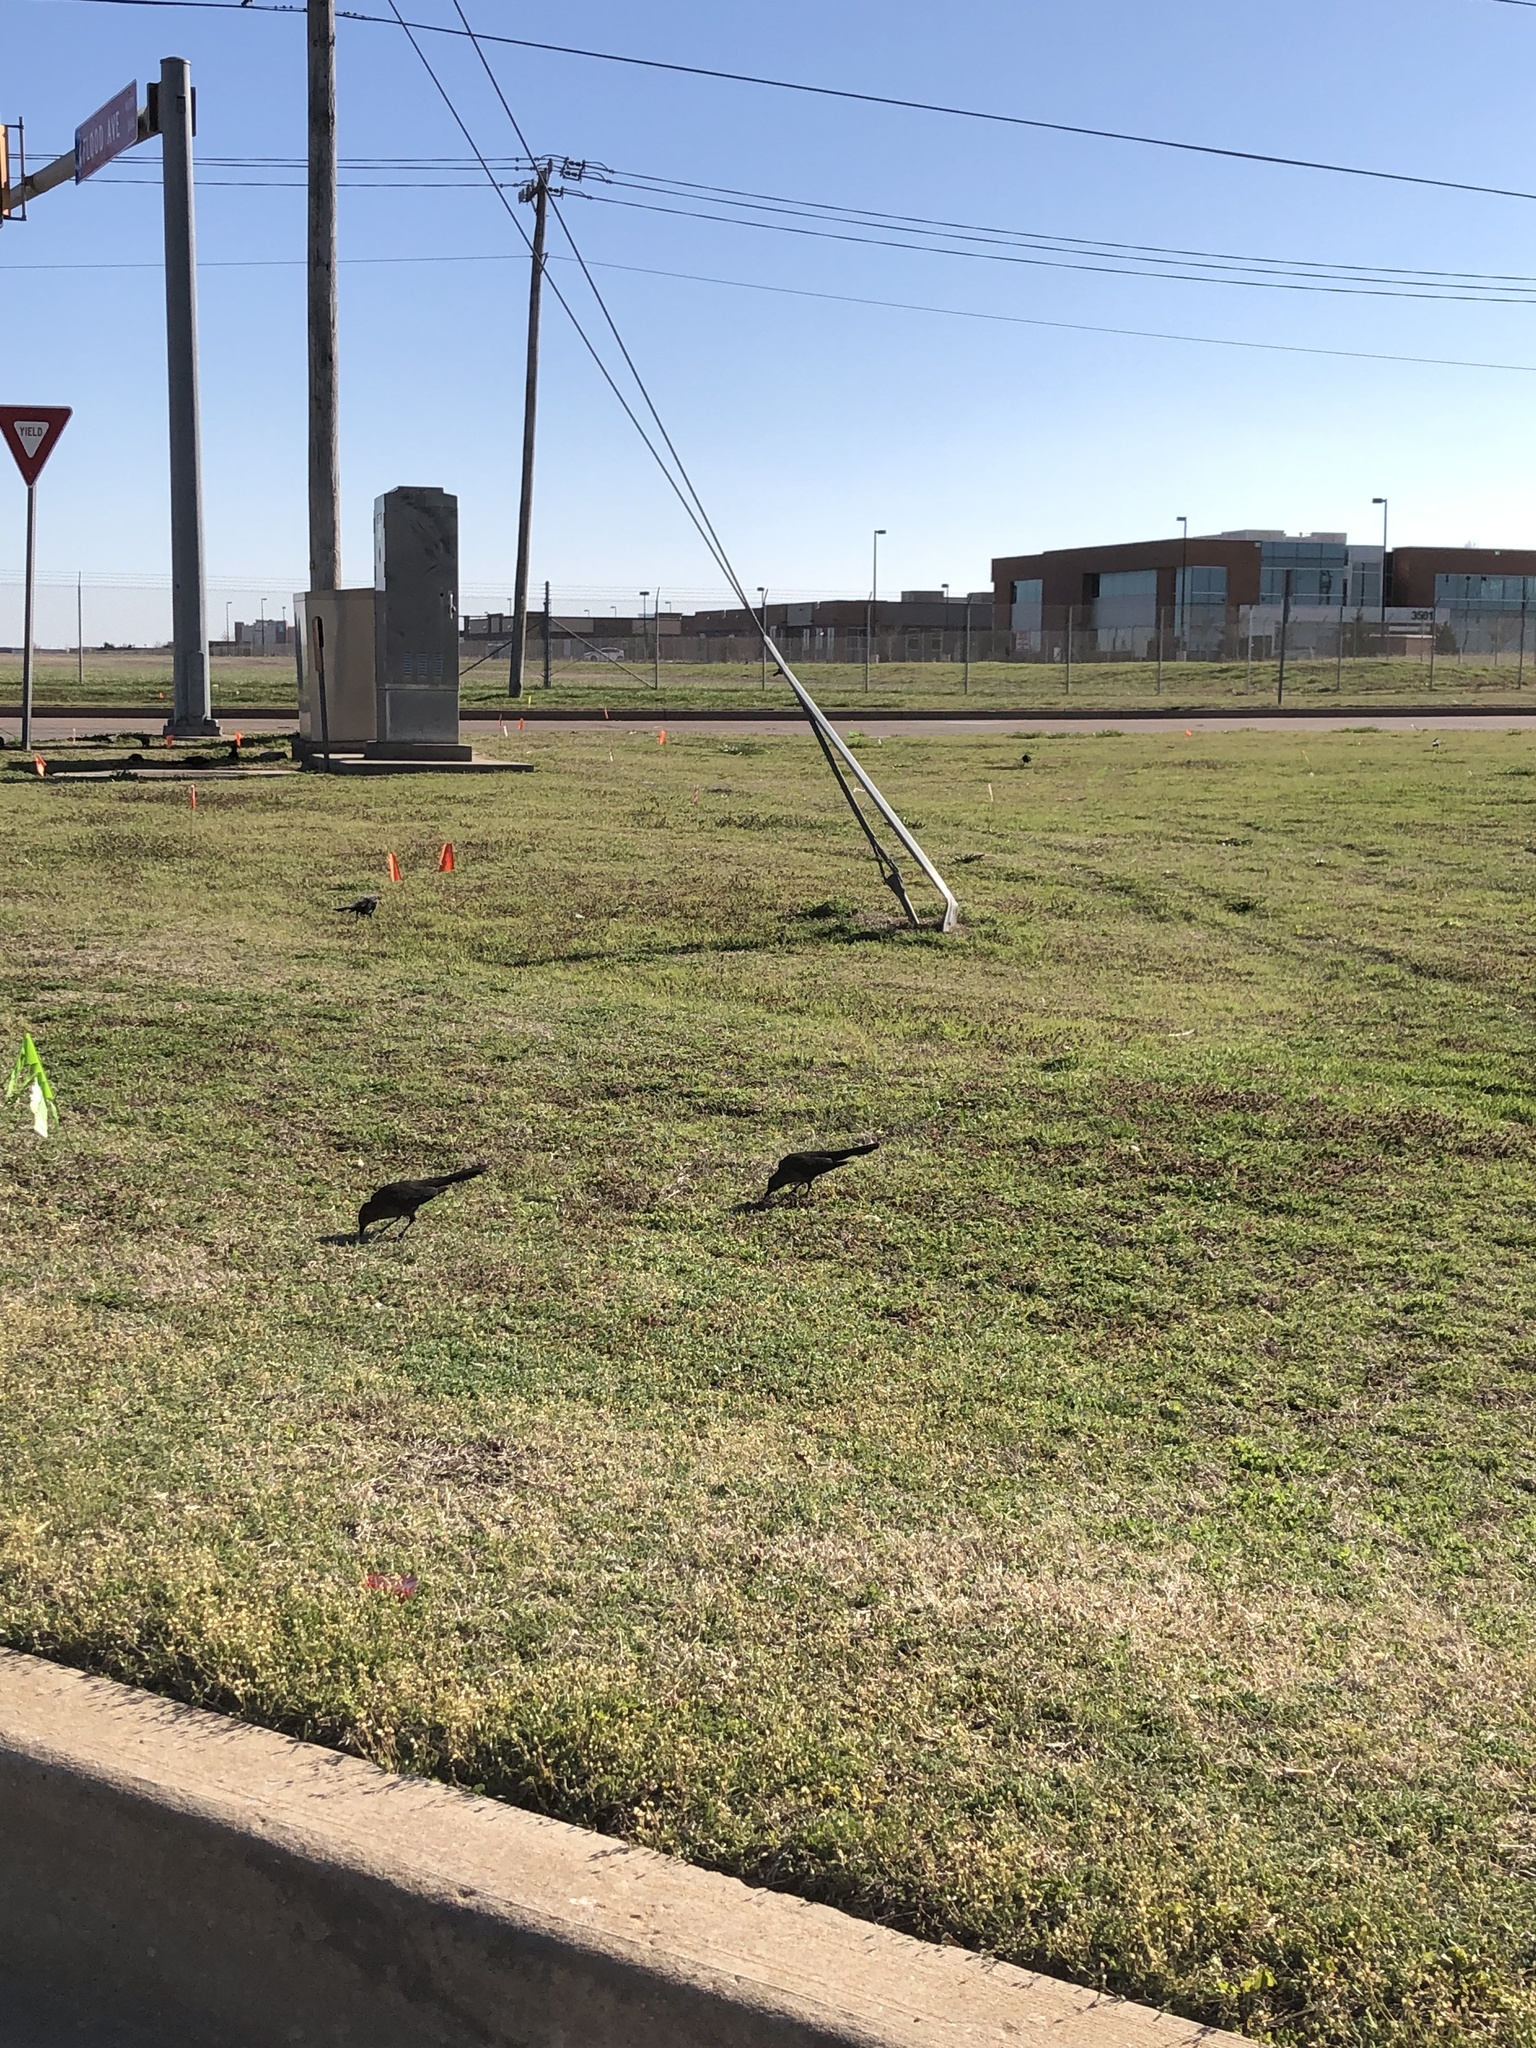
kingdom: Animalia
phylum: Chordata
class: Aves
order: Passeriformes
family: Icteridae
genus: Quiscalus
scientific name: Quiscalus mexicanus
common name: Great-tailed grackle
